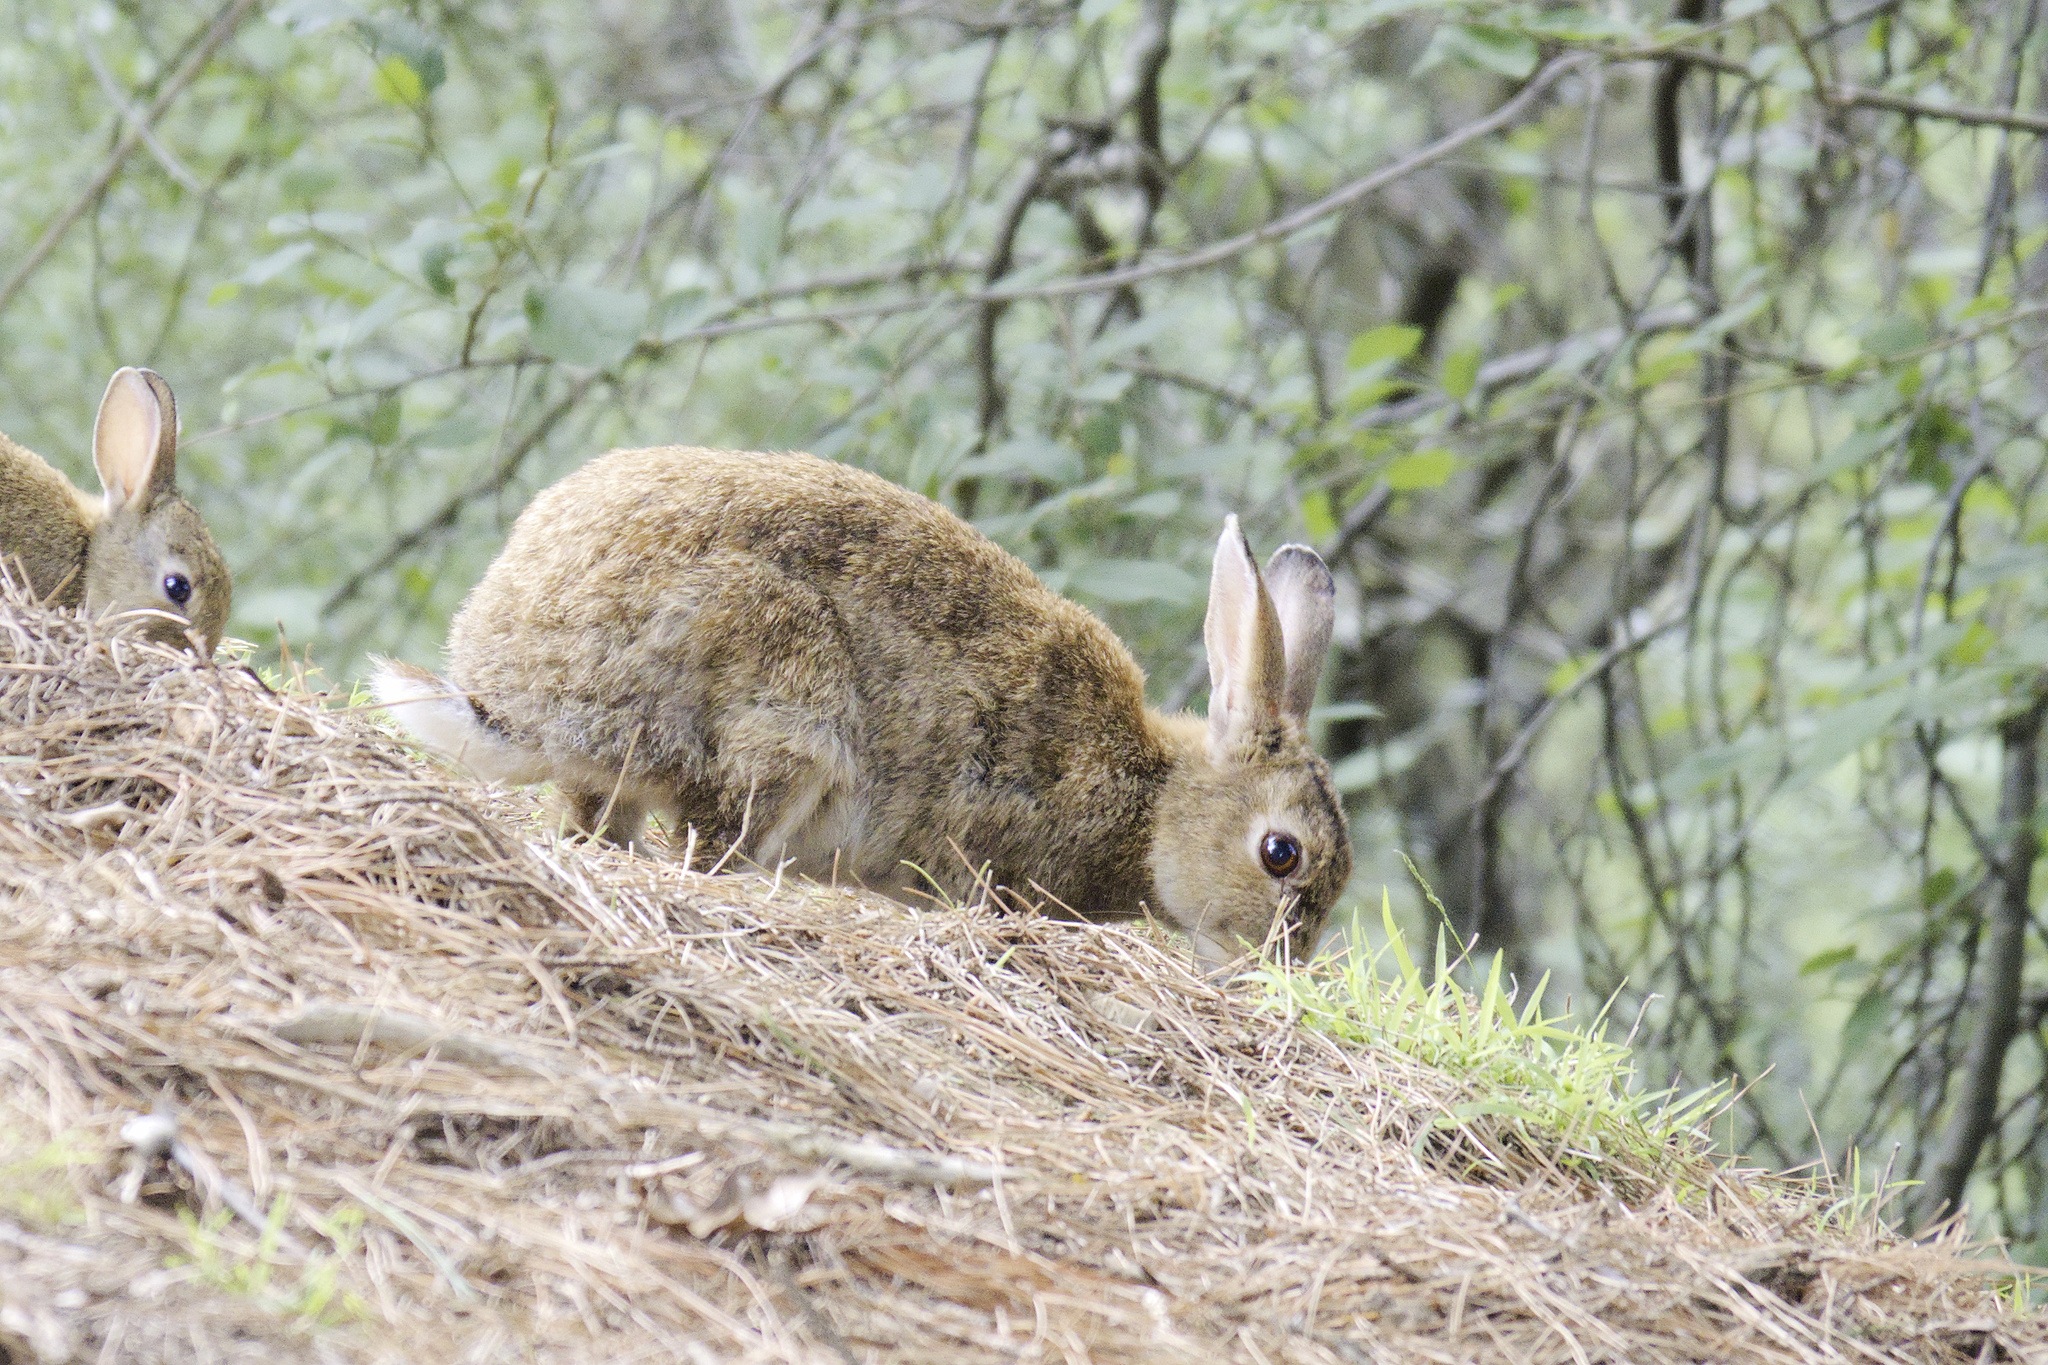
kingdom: Animalia
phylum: Chordata
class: Mammalia
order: Lagomorpha
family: Leporidae
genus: Oryctolagus
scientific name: Oryctolagus cuniculus
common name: European rabbit
